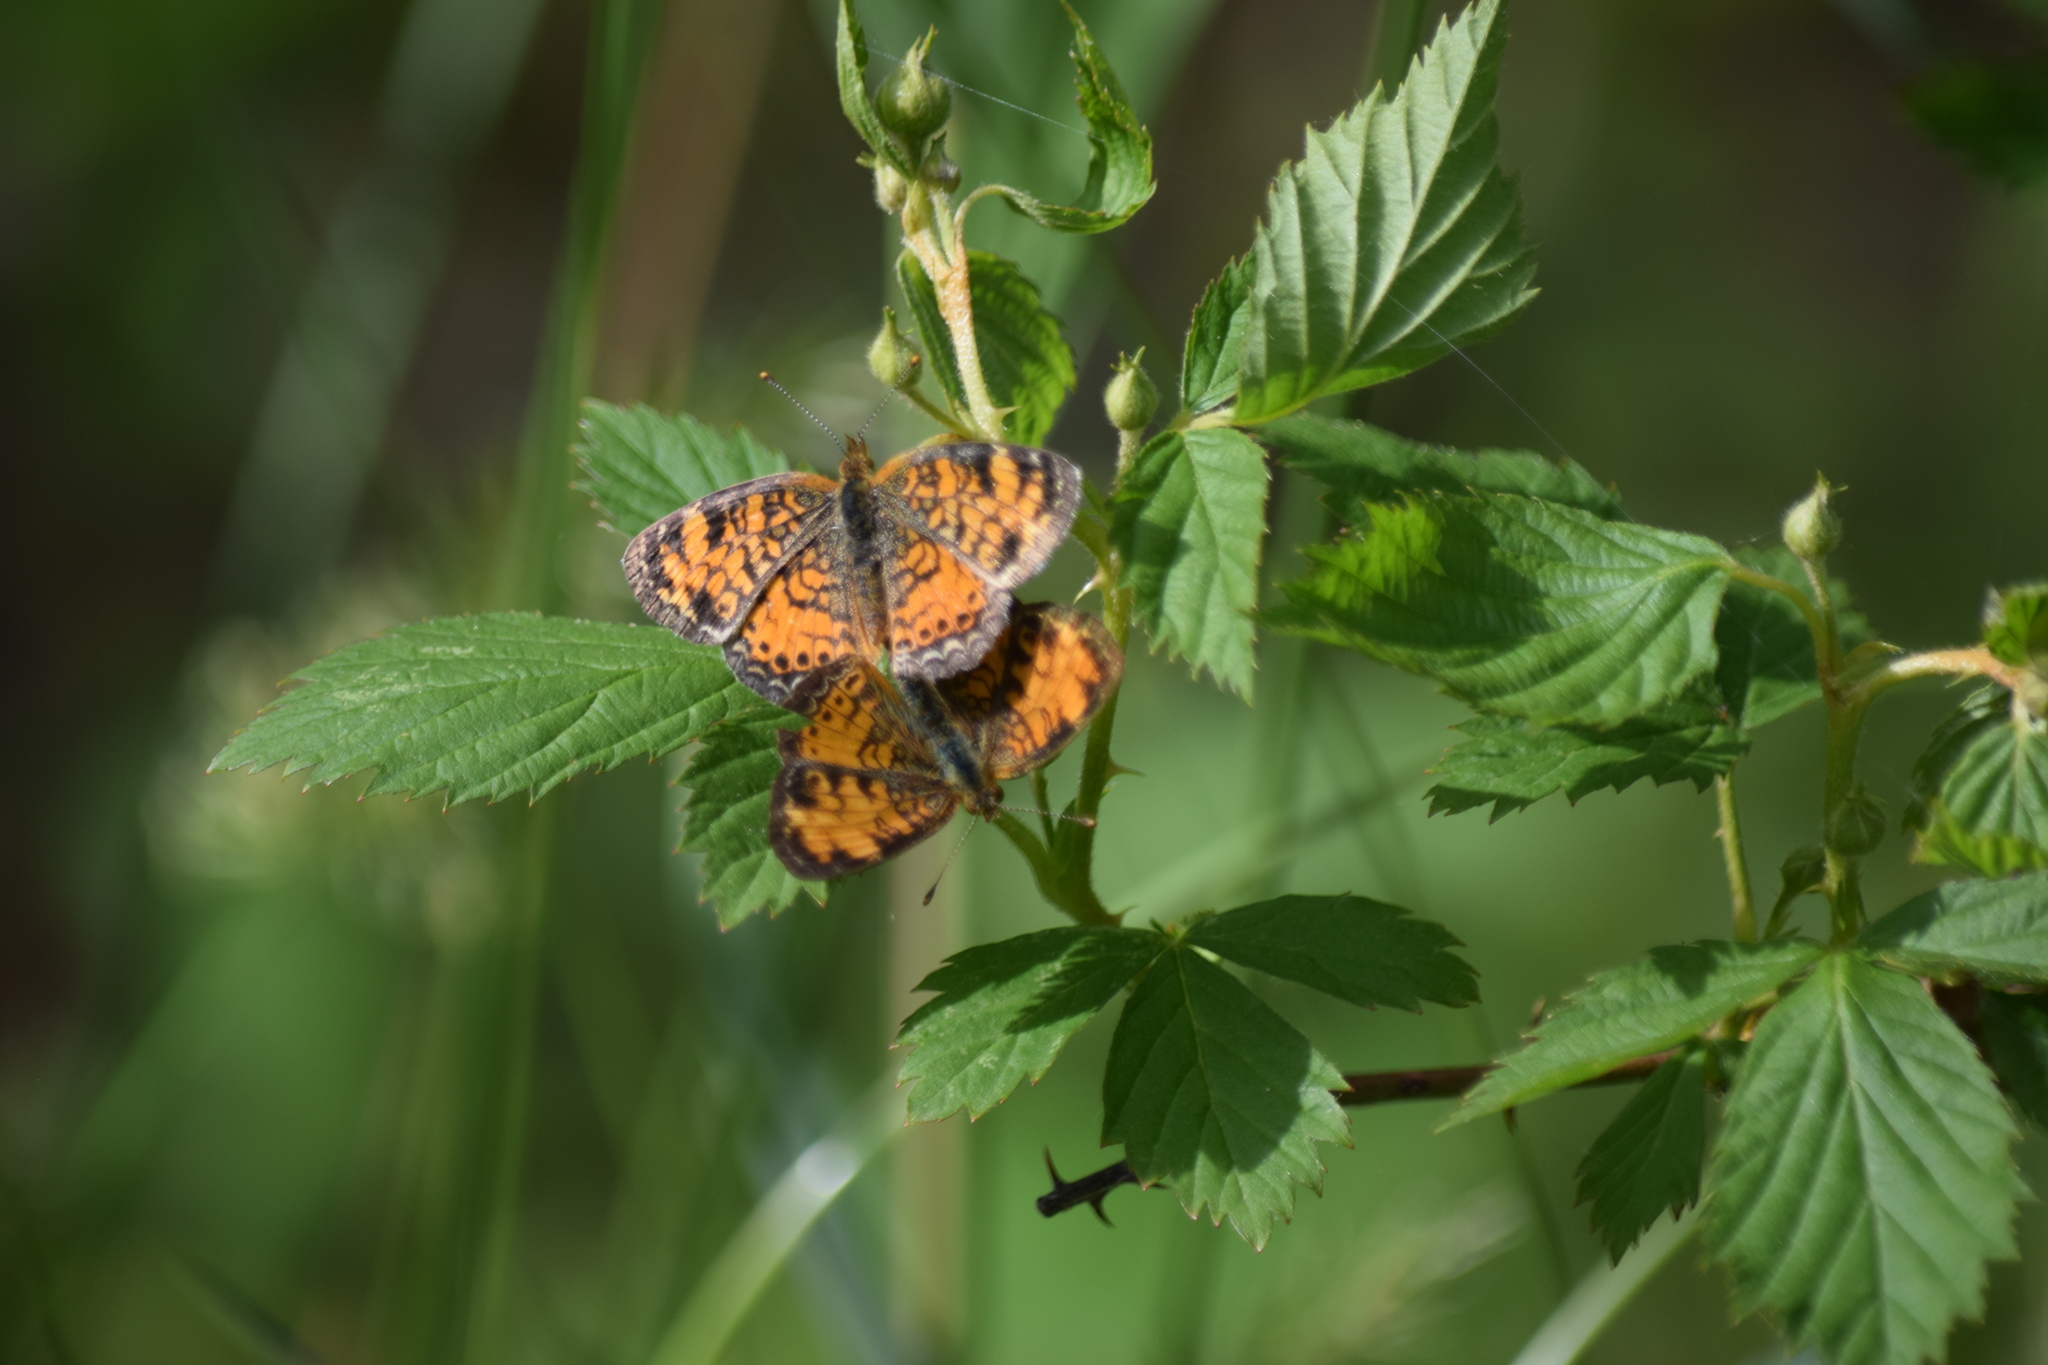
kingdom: Animalia
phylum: Arthropoda
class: Insecta
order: Lepidoptera
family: Nymphalidae
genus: Phyciodes
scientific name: Phyciodes tharos
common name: Pearl crescent
